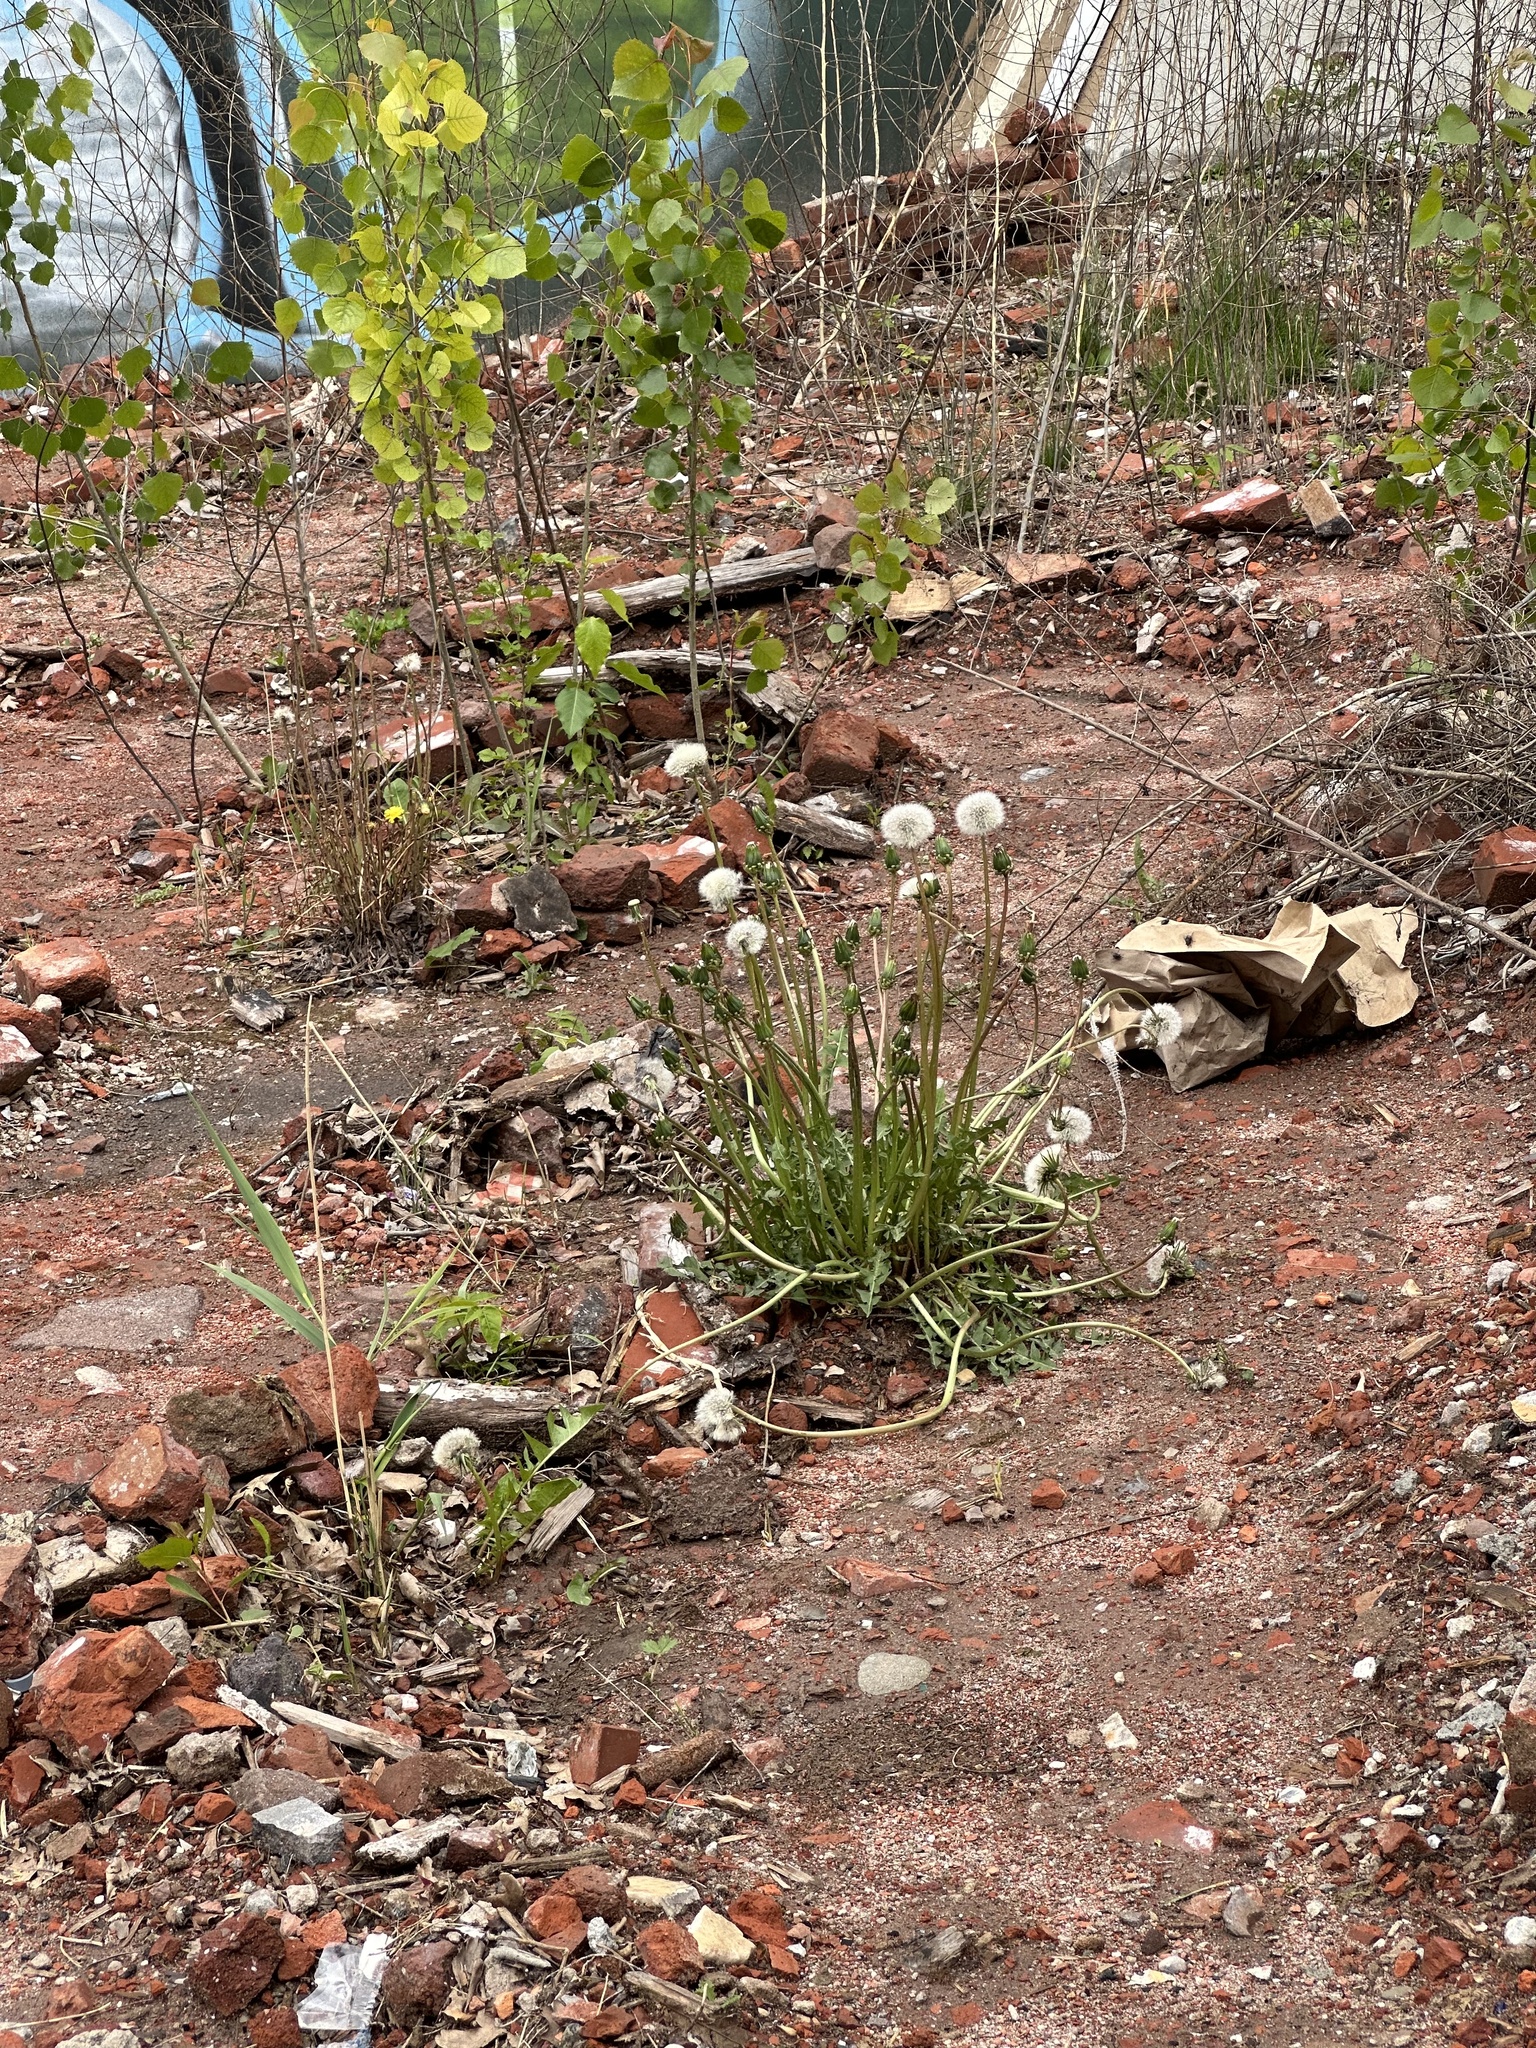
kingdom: Plantae
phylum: Tracheophyta
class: Magnoliopsida
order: Asterales
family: Asteraceae
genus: Taraxacum
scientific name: Taraxacum officinale
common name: Common dandelion
